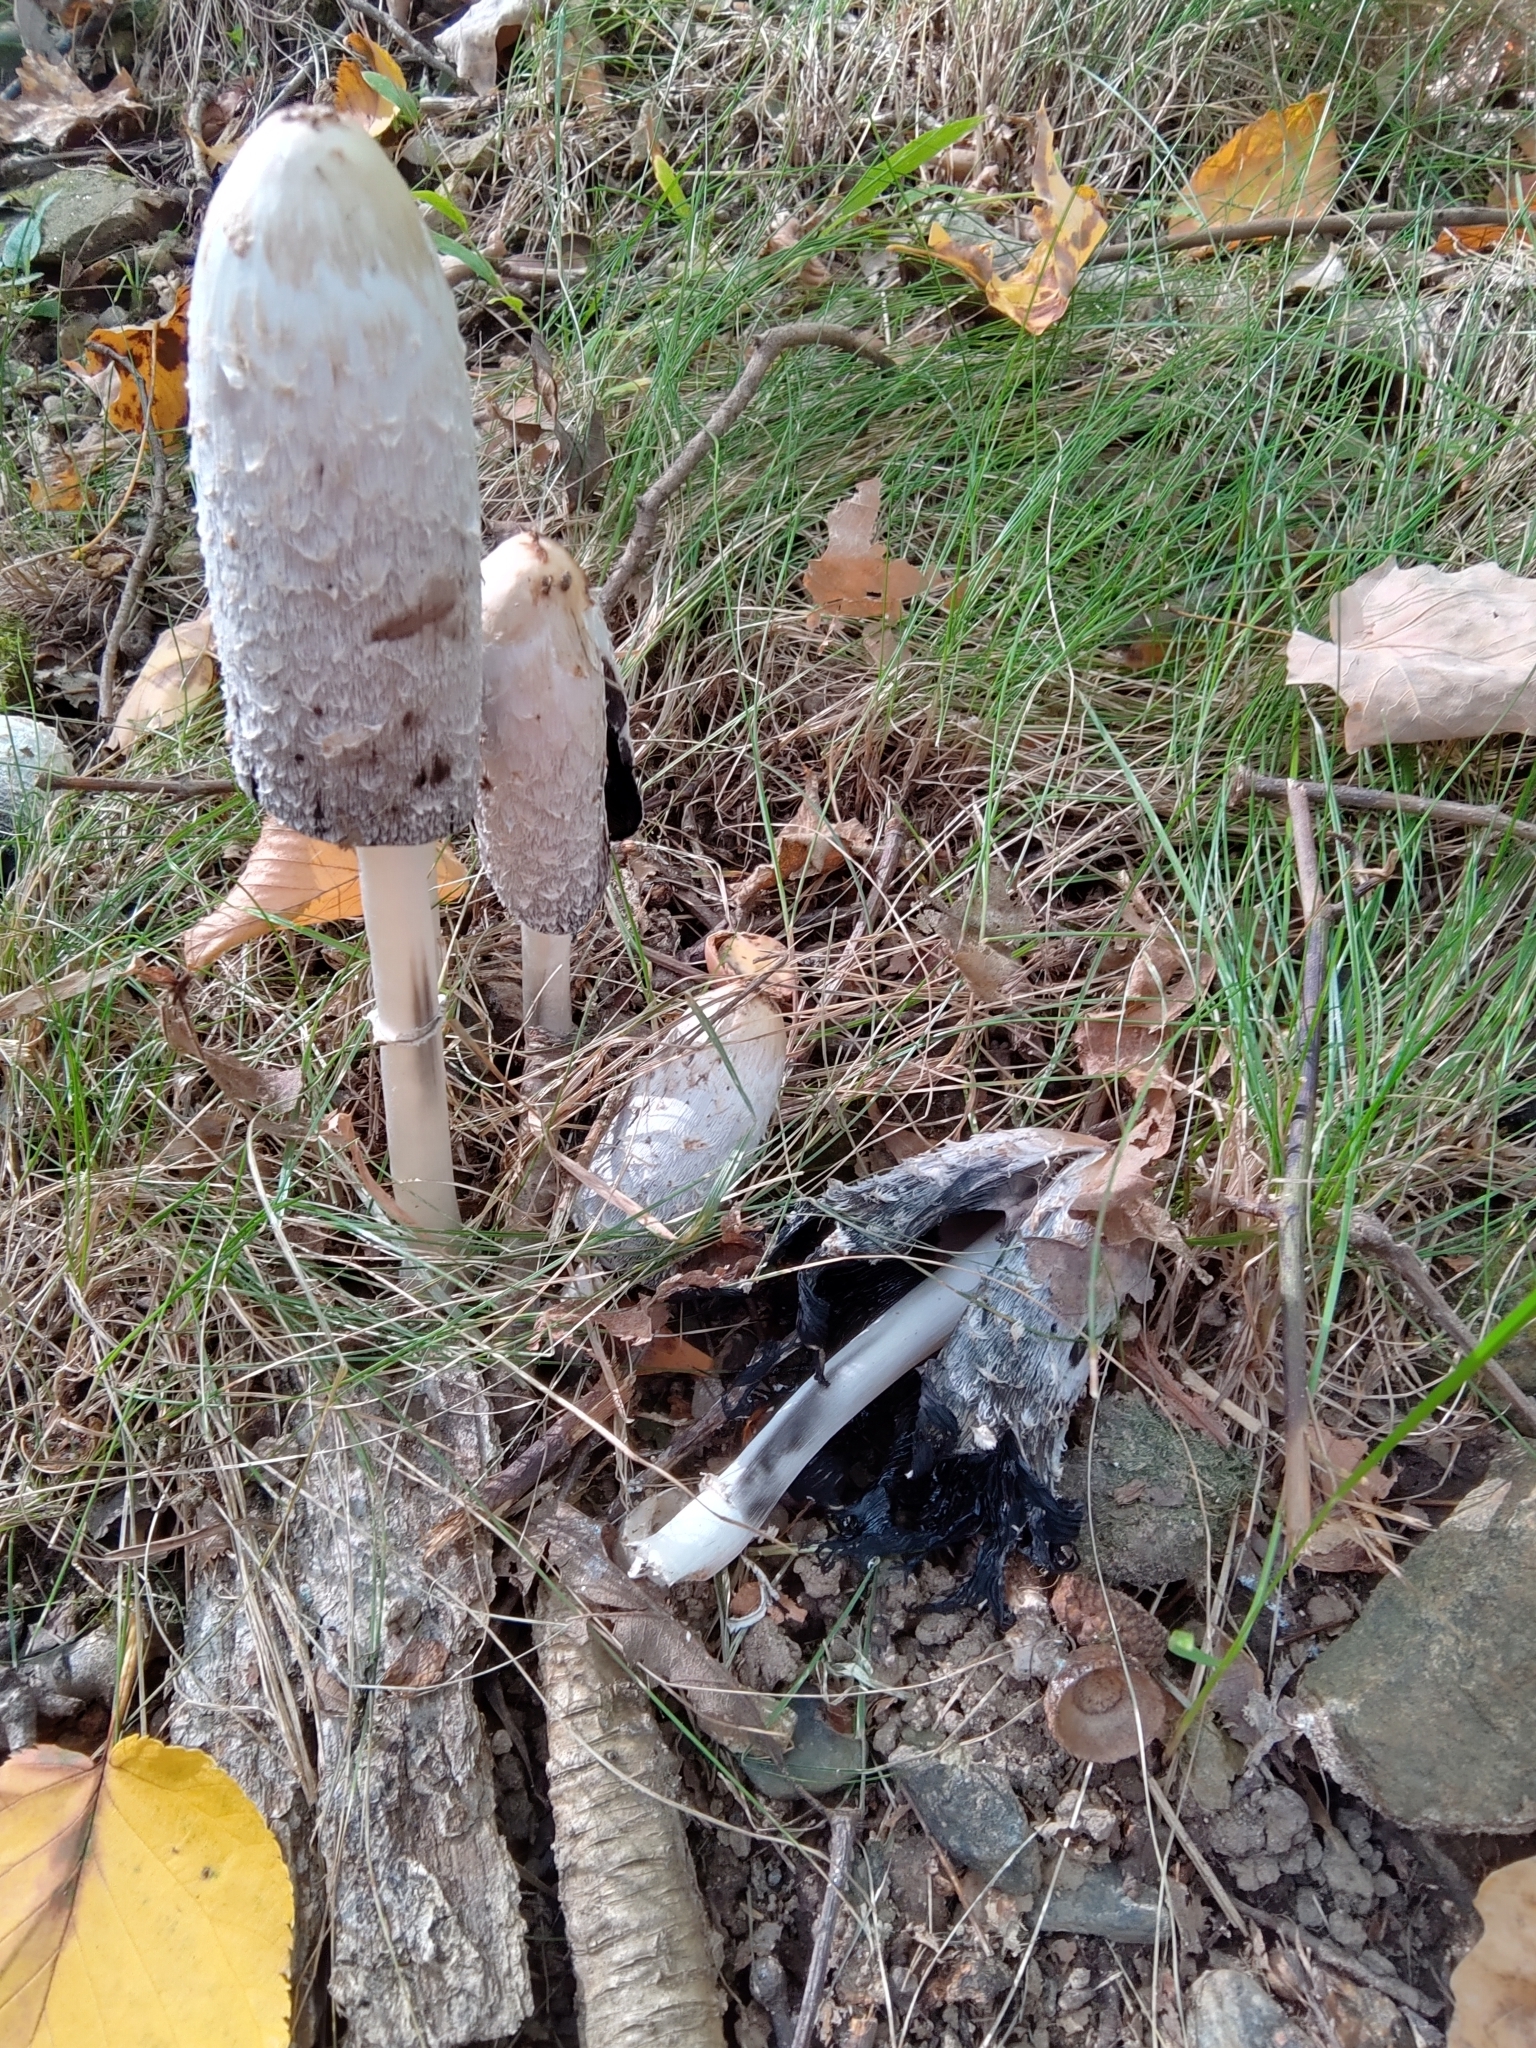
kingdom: Fungi
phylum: Basidiomycota
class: Agaricomycetes
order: Agaricales
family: Agaricaceae
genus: Coprinus
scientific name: Coprinus comatus
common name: Lawyer's wig
